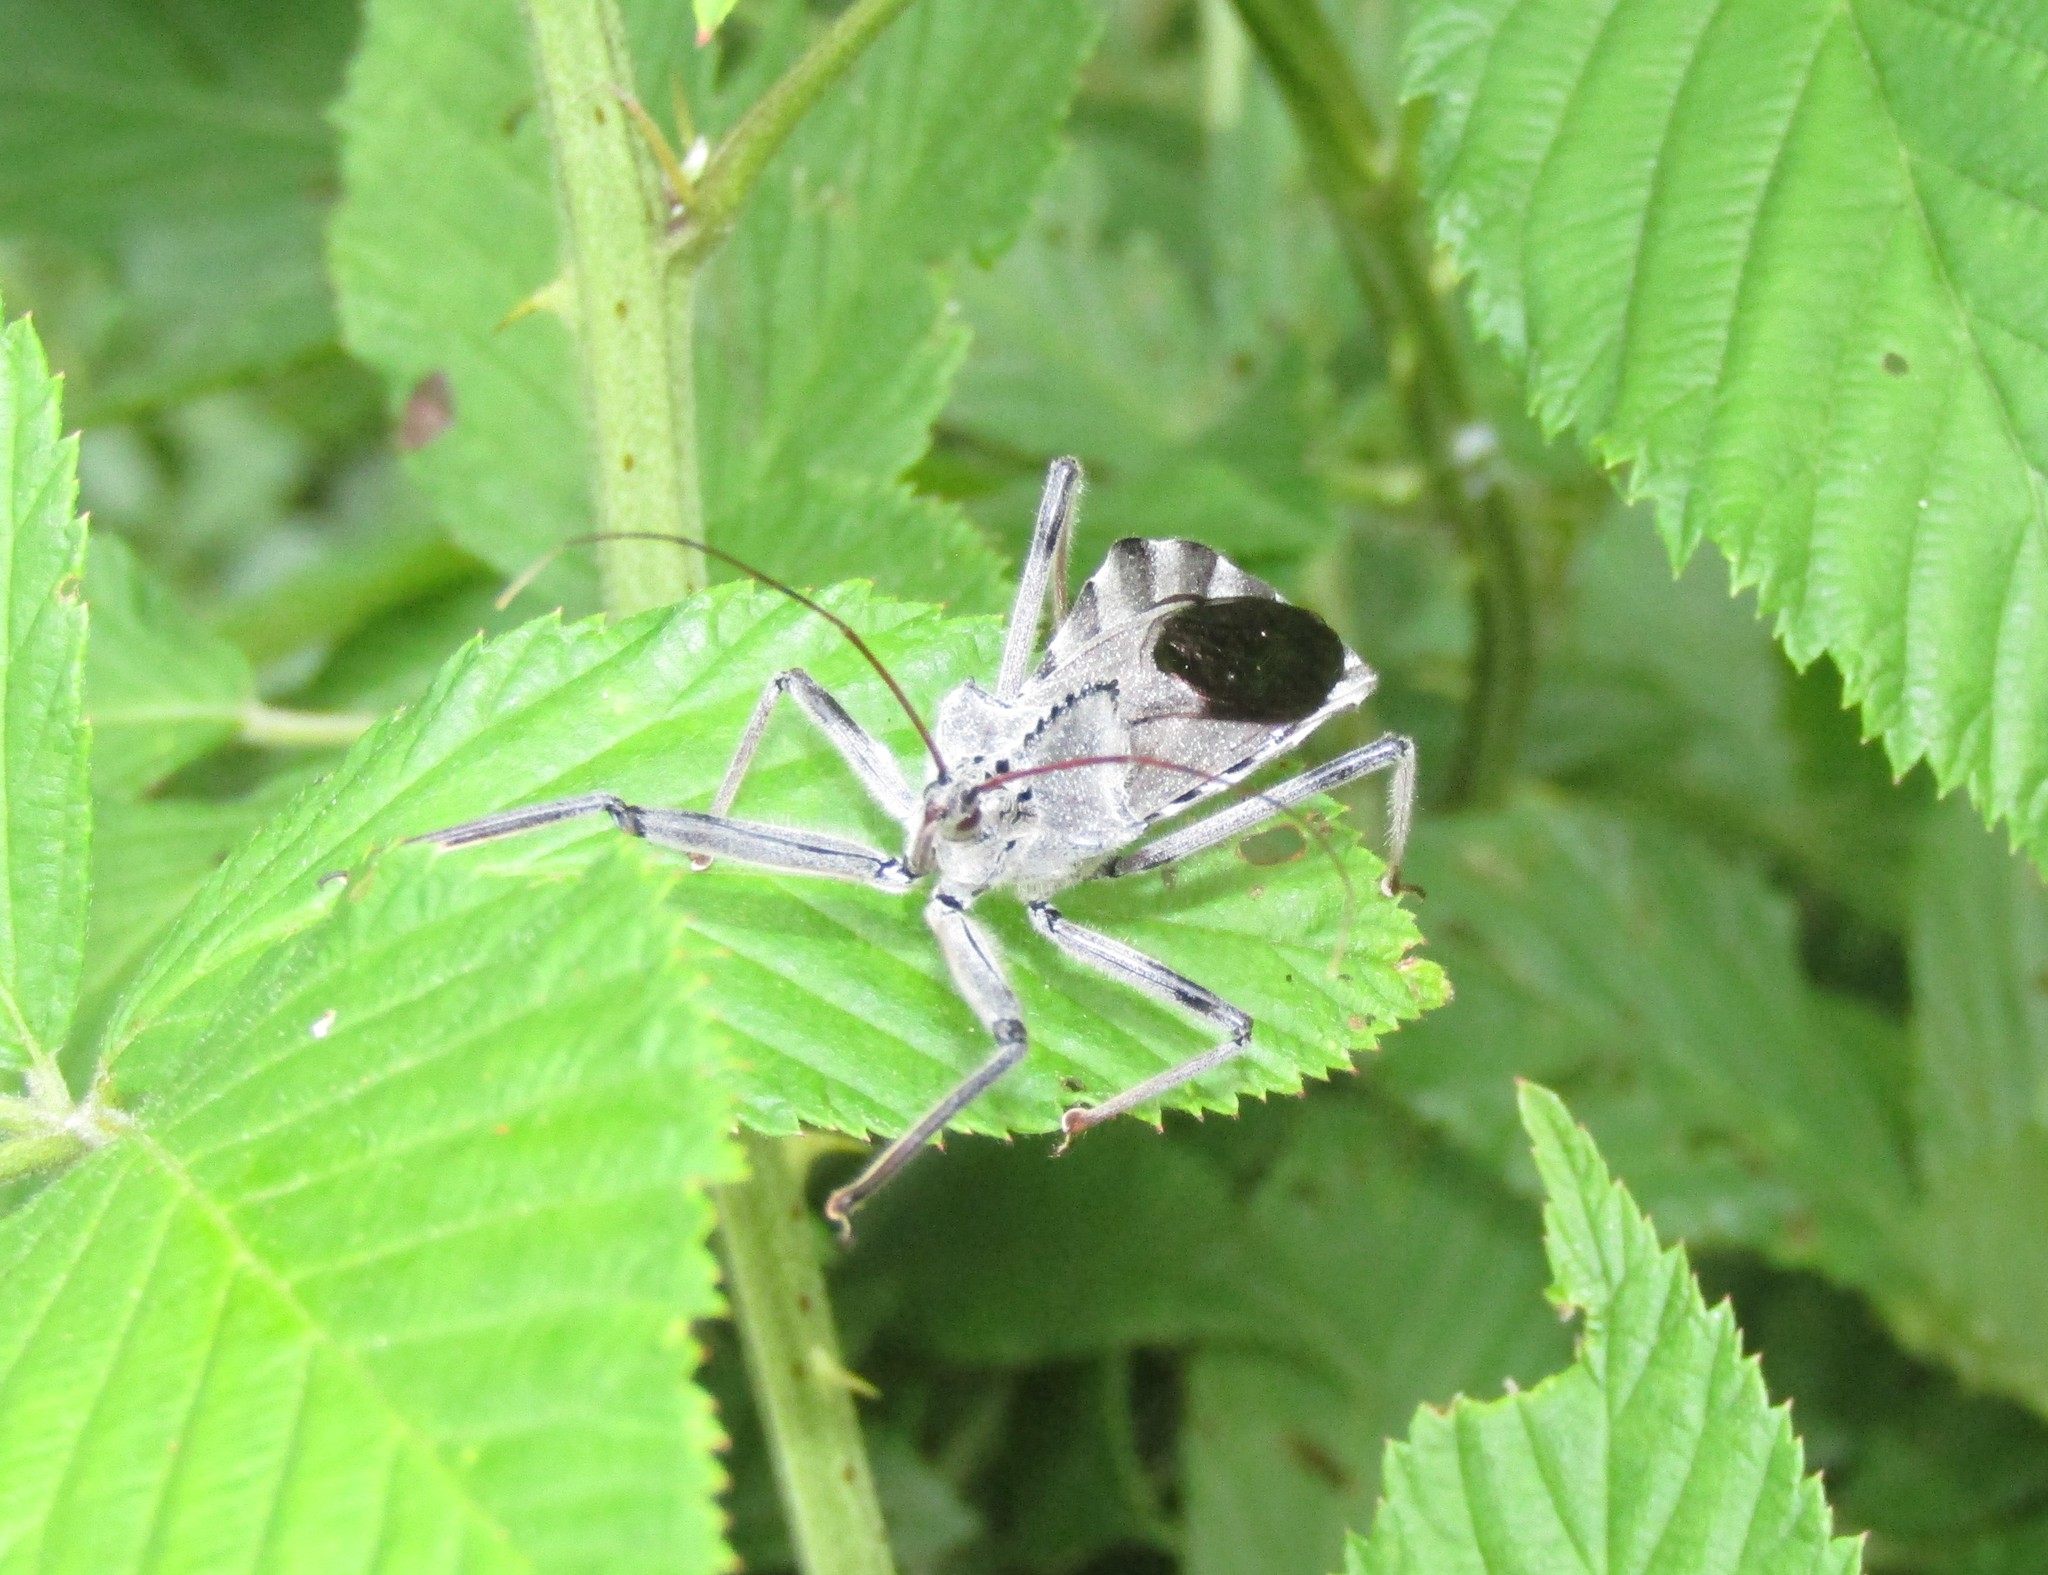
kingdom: Animalia
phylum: Arthropoda
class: Insecta
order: Hemiptera
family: Reduviidae
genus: Arilus
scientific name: Arilus cristatus
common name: North american wheel bug
